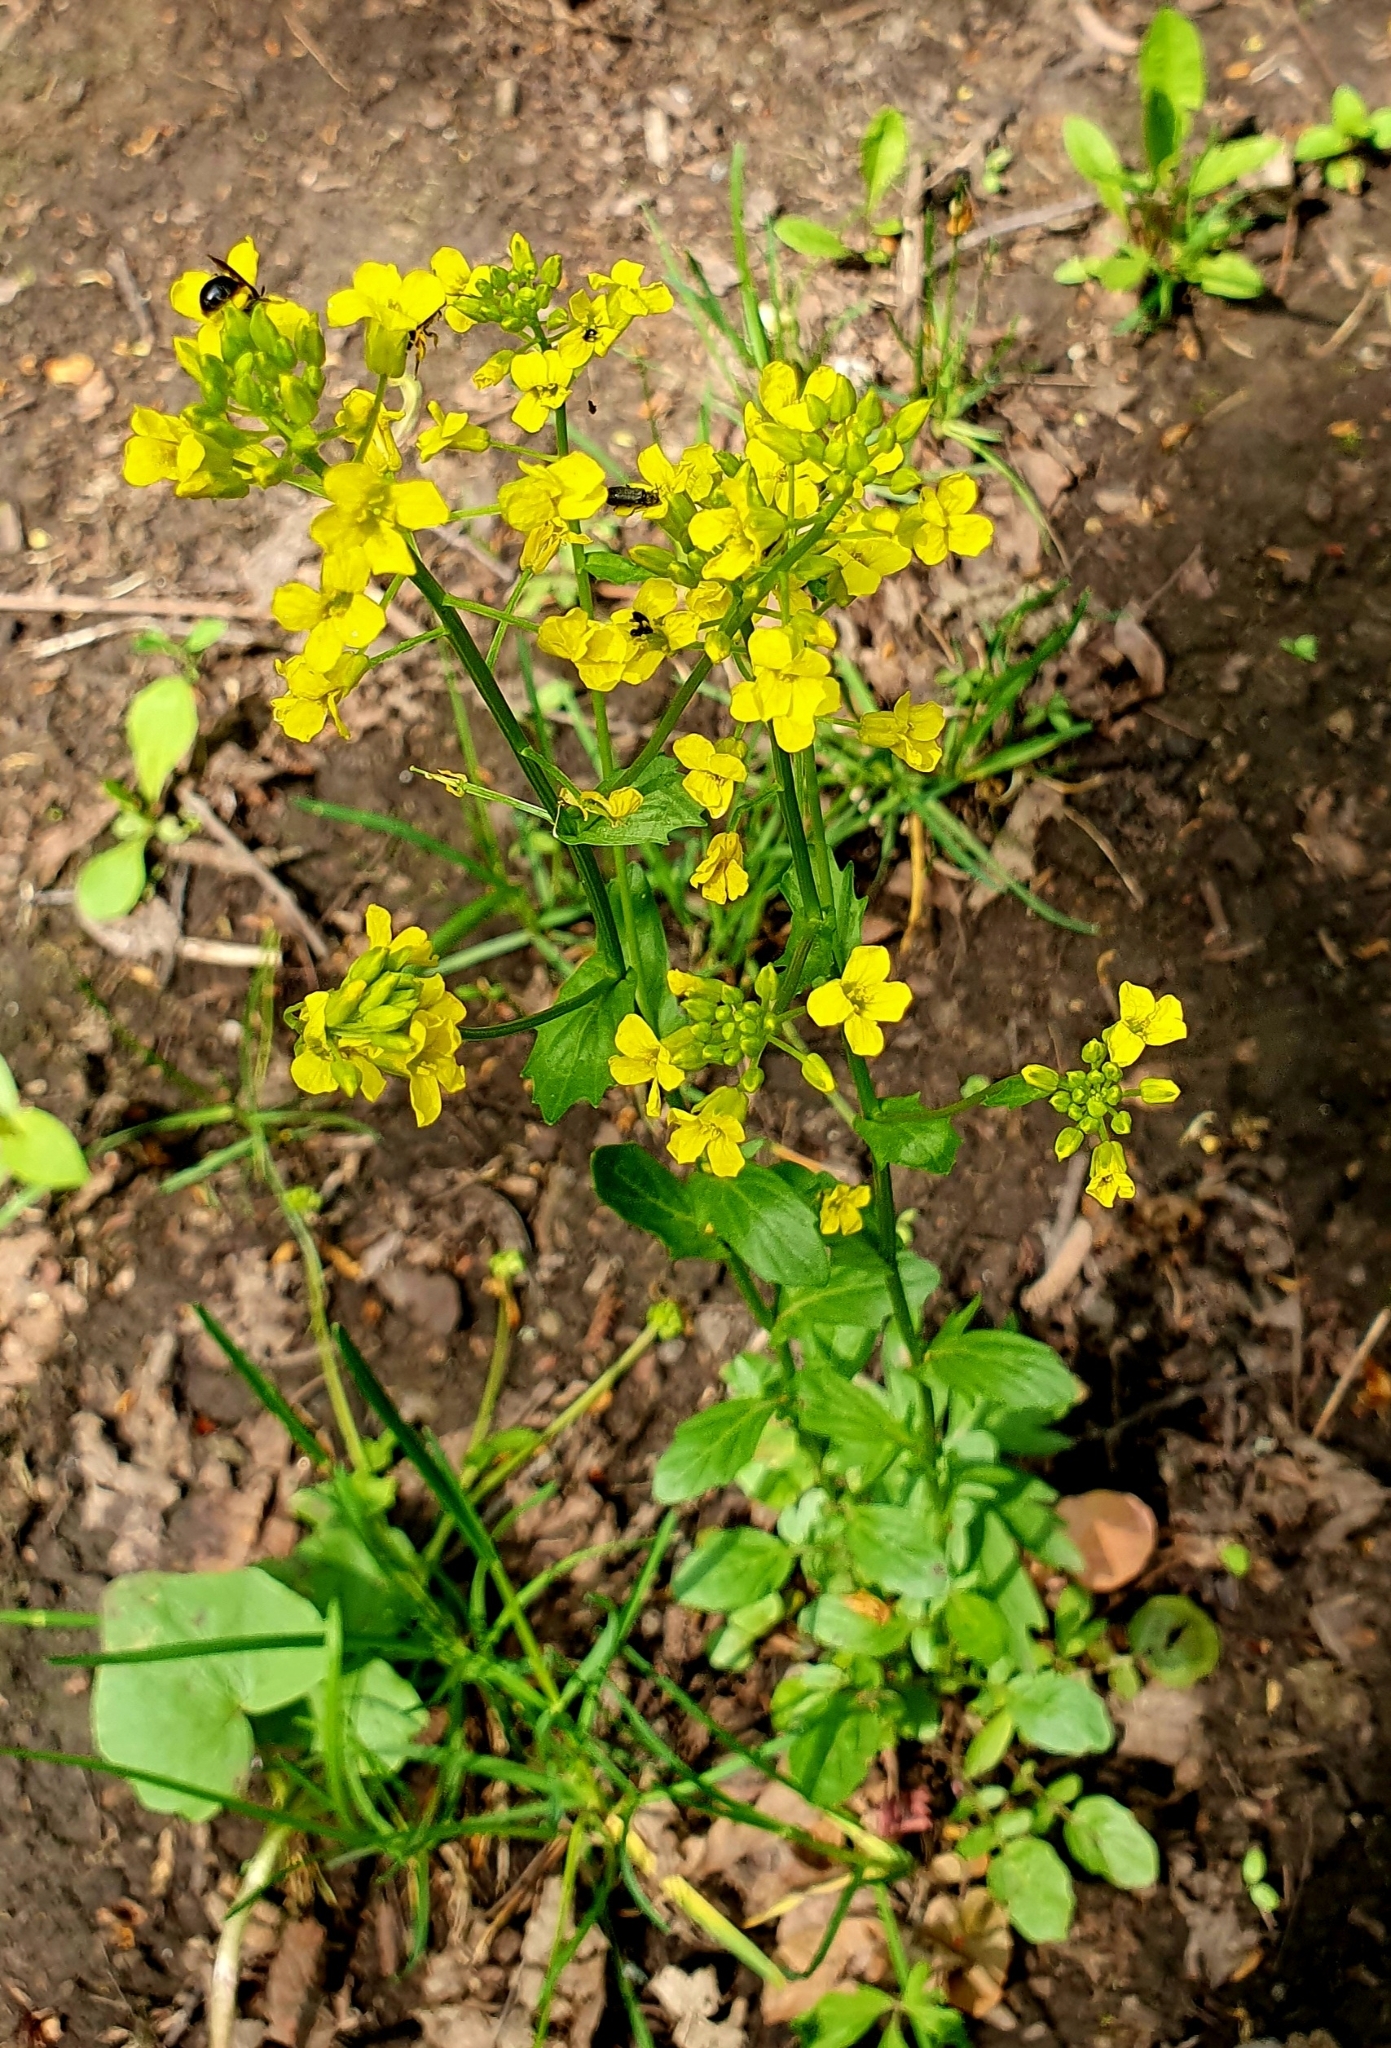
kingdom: Plantae
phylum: Tracheophyta
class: Magnoliopsida
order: Brassicales
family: Brassicaceae
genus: Barbarea
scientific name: Barbarea vulgaris
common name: Cressy-greens
